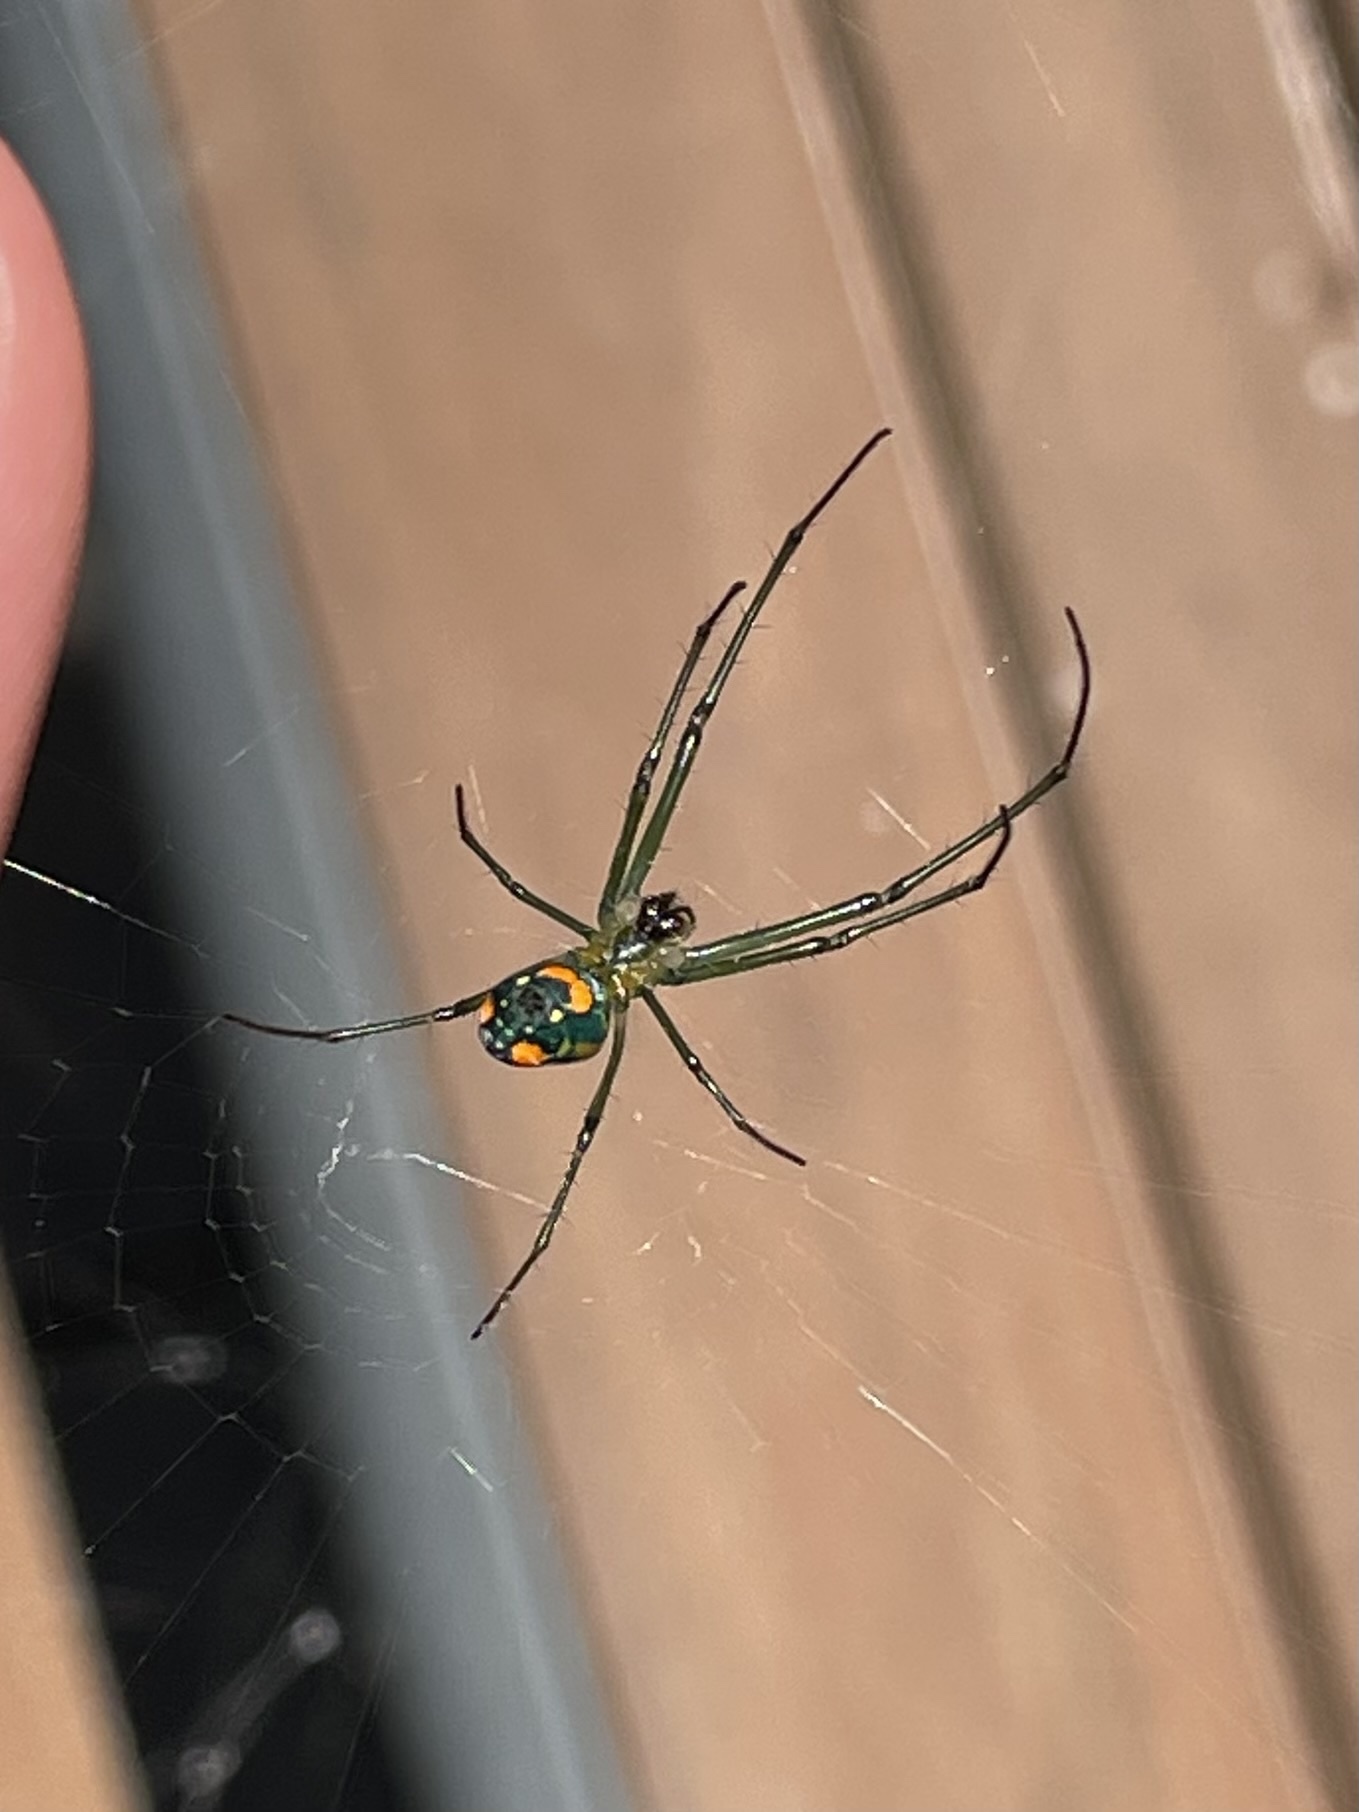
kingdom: Animalia
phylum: Arthropoda
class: Arachnida
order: Araneae
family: Tetragnathidae
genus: Leucauge
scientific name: Leucauge argyrobapta
